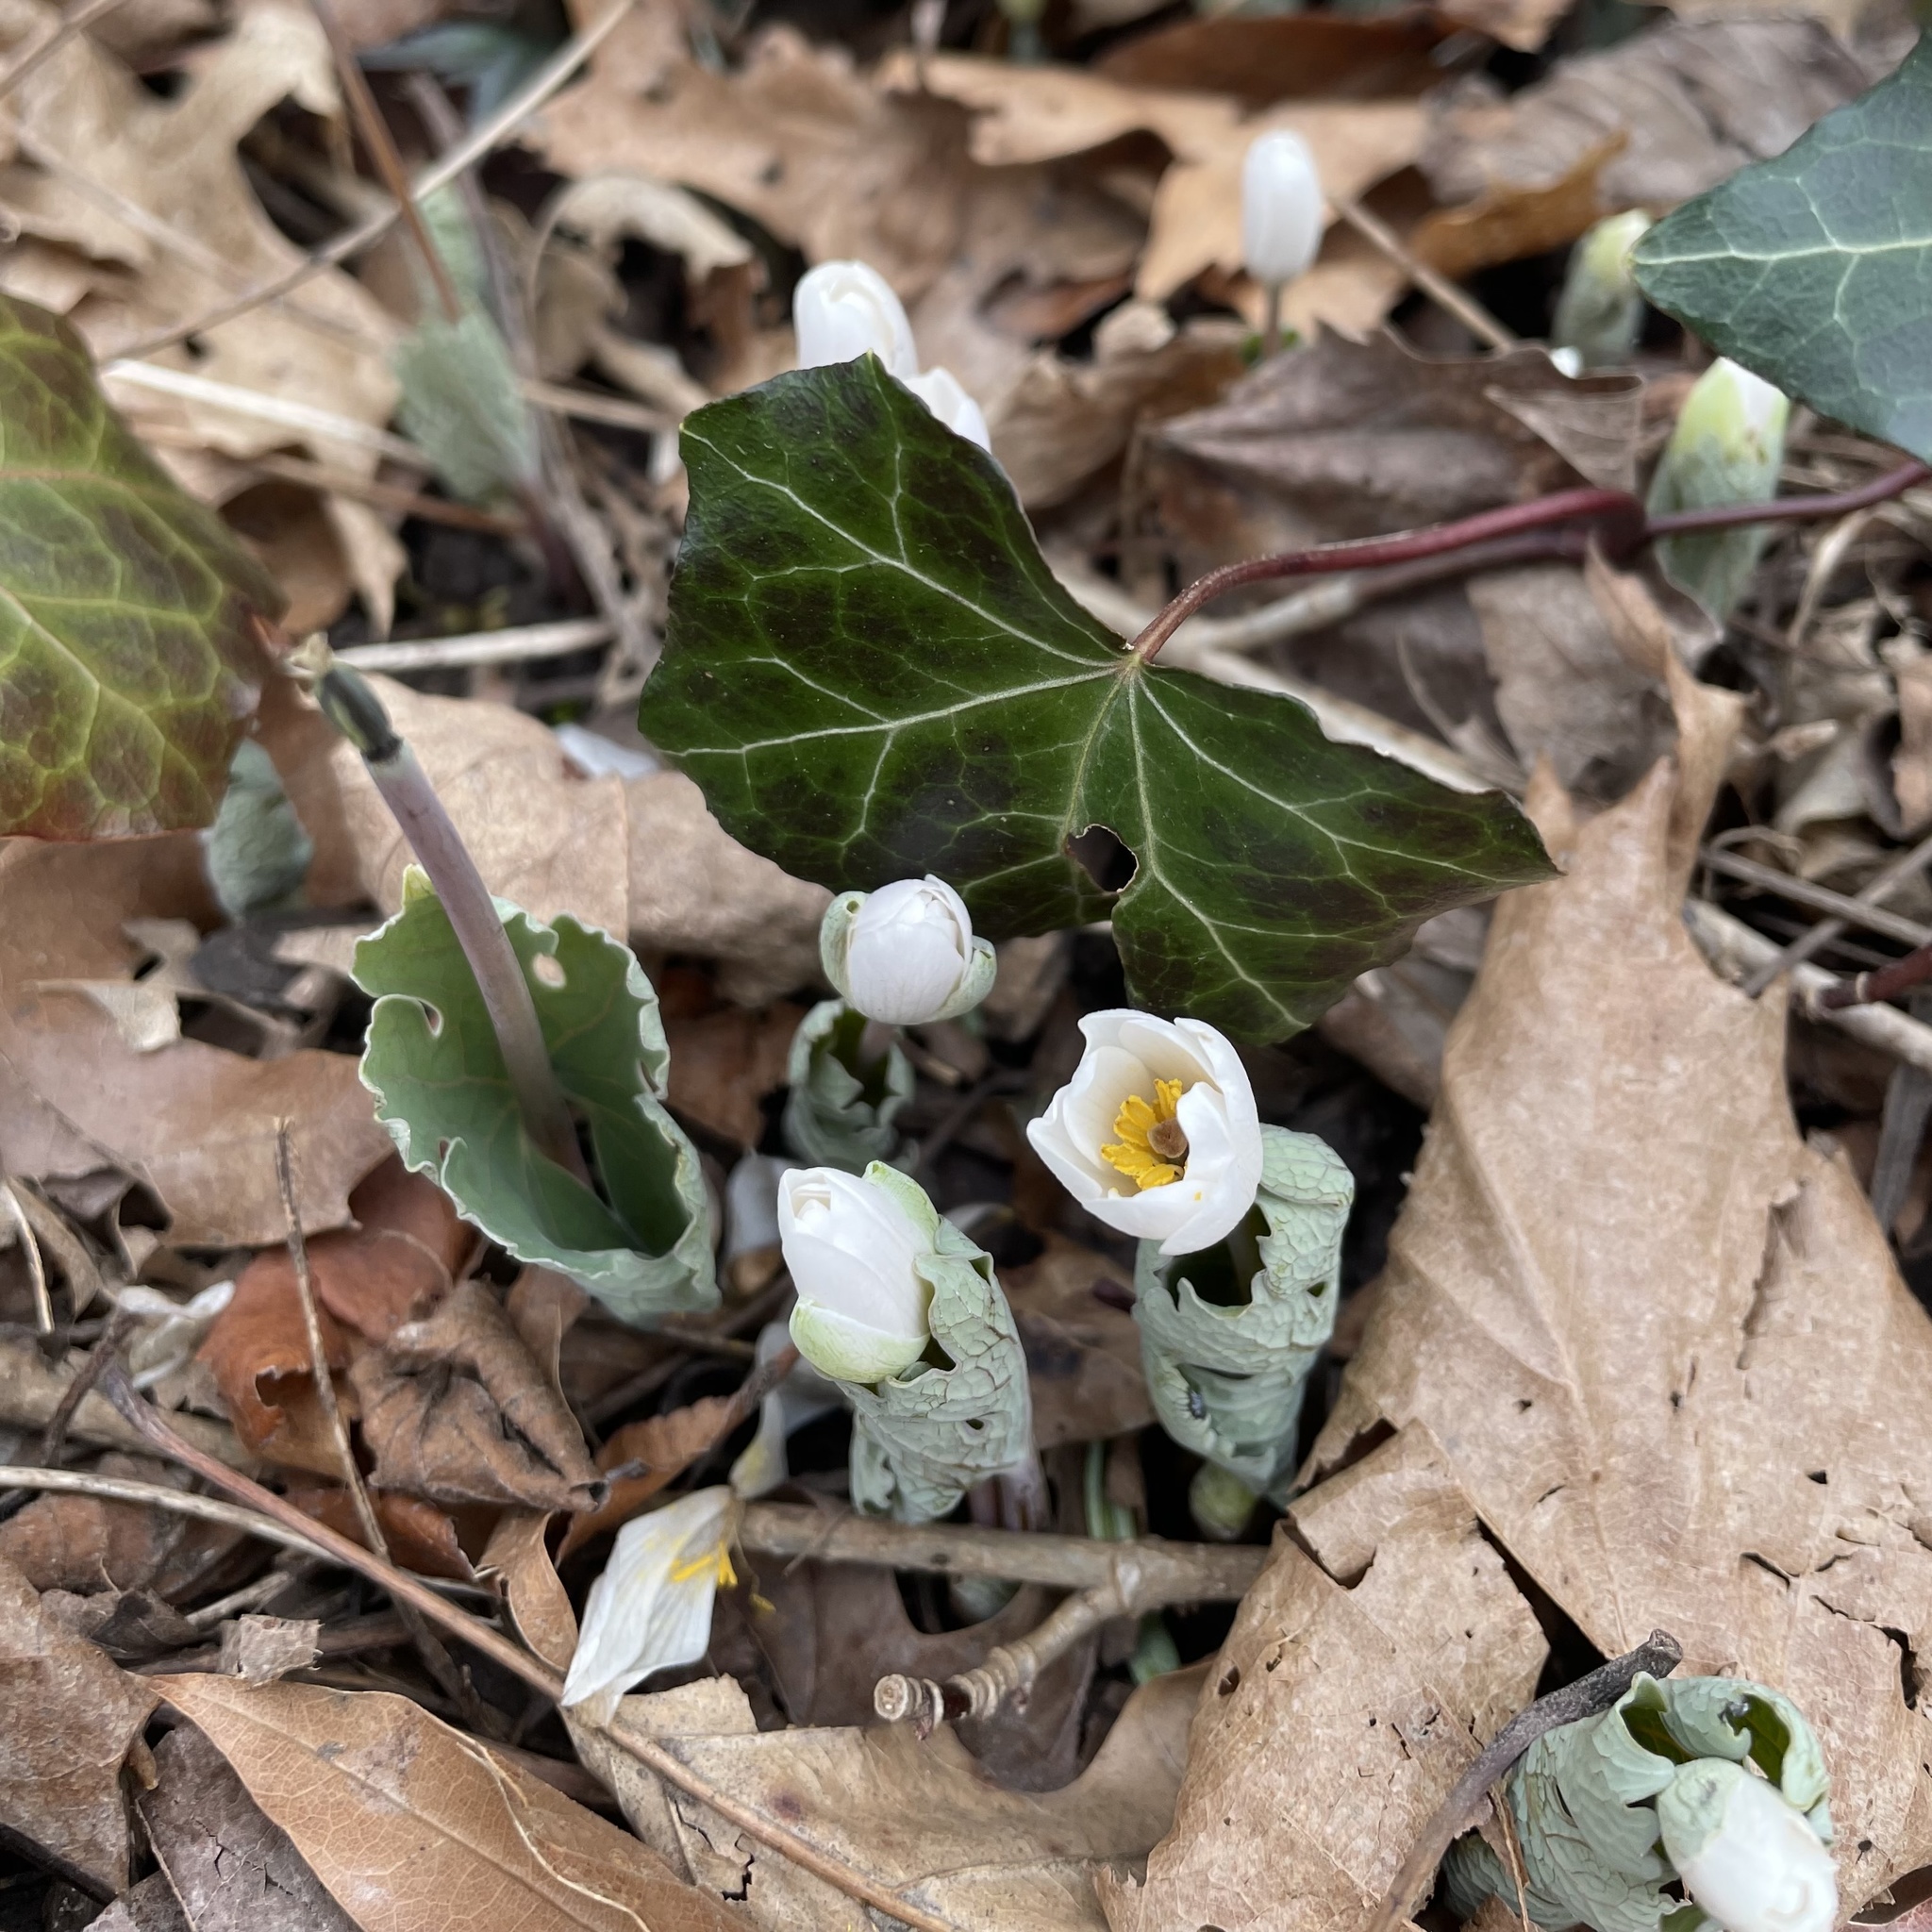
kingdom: Plantae
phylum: Tracheophyta
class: Magnoliopsida
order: Ranunculales
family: Papaveraceae
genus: Sanguinaria
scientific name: Sanguinaria canadensis
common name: Bloodroot
